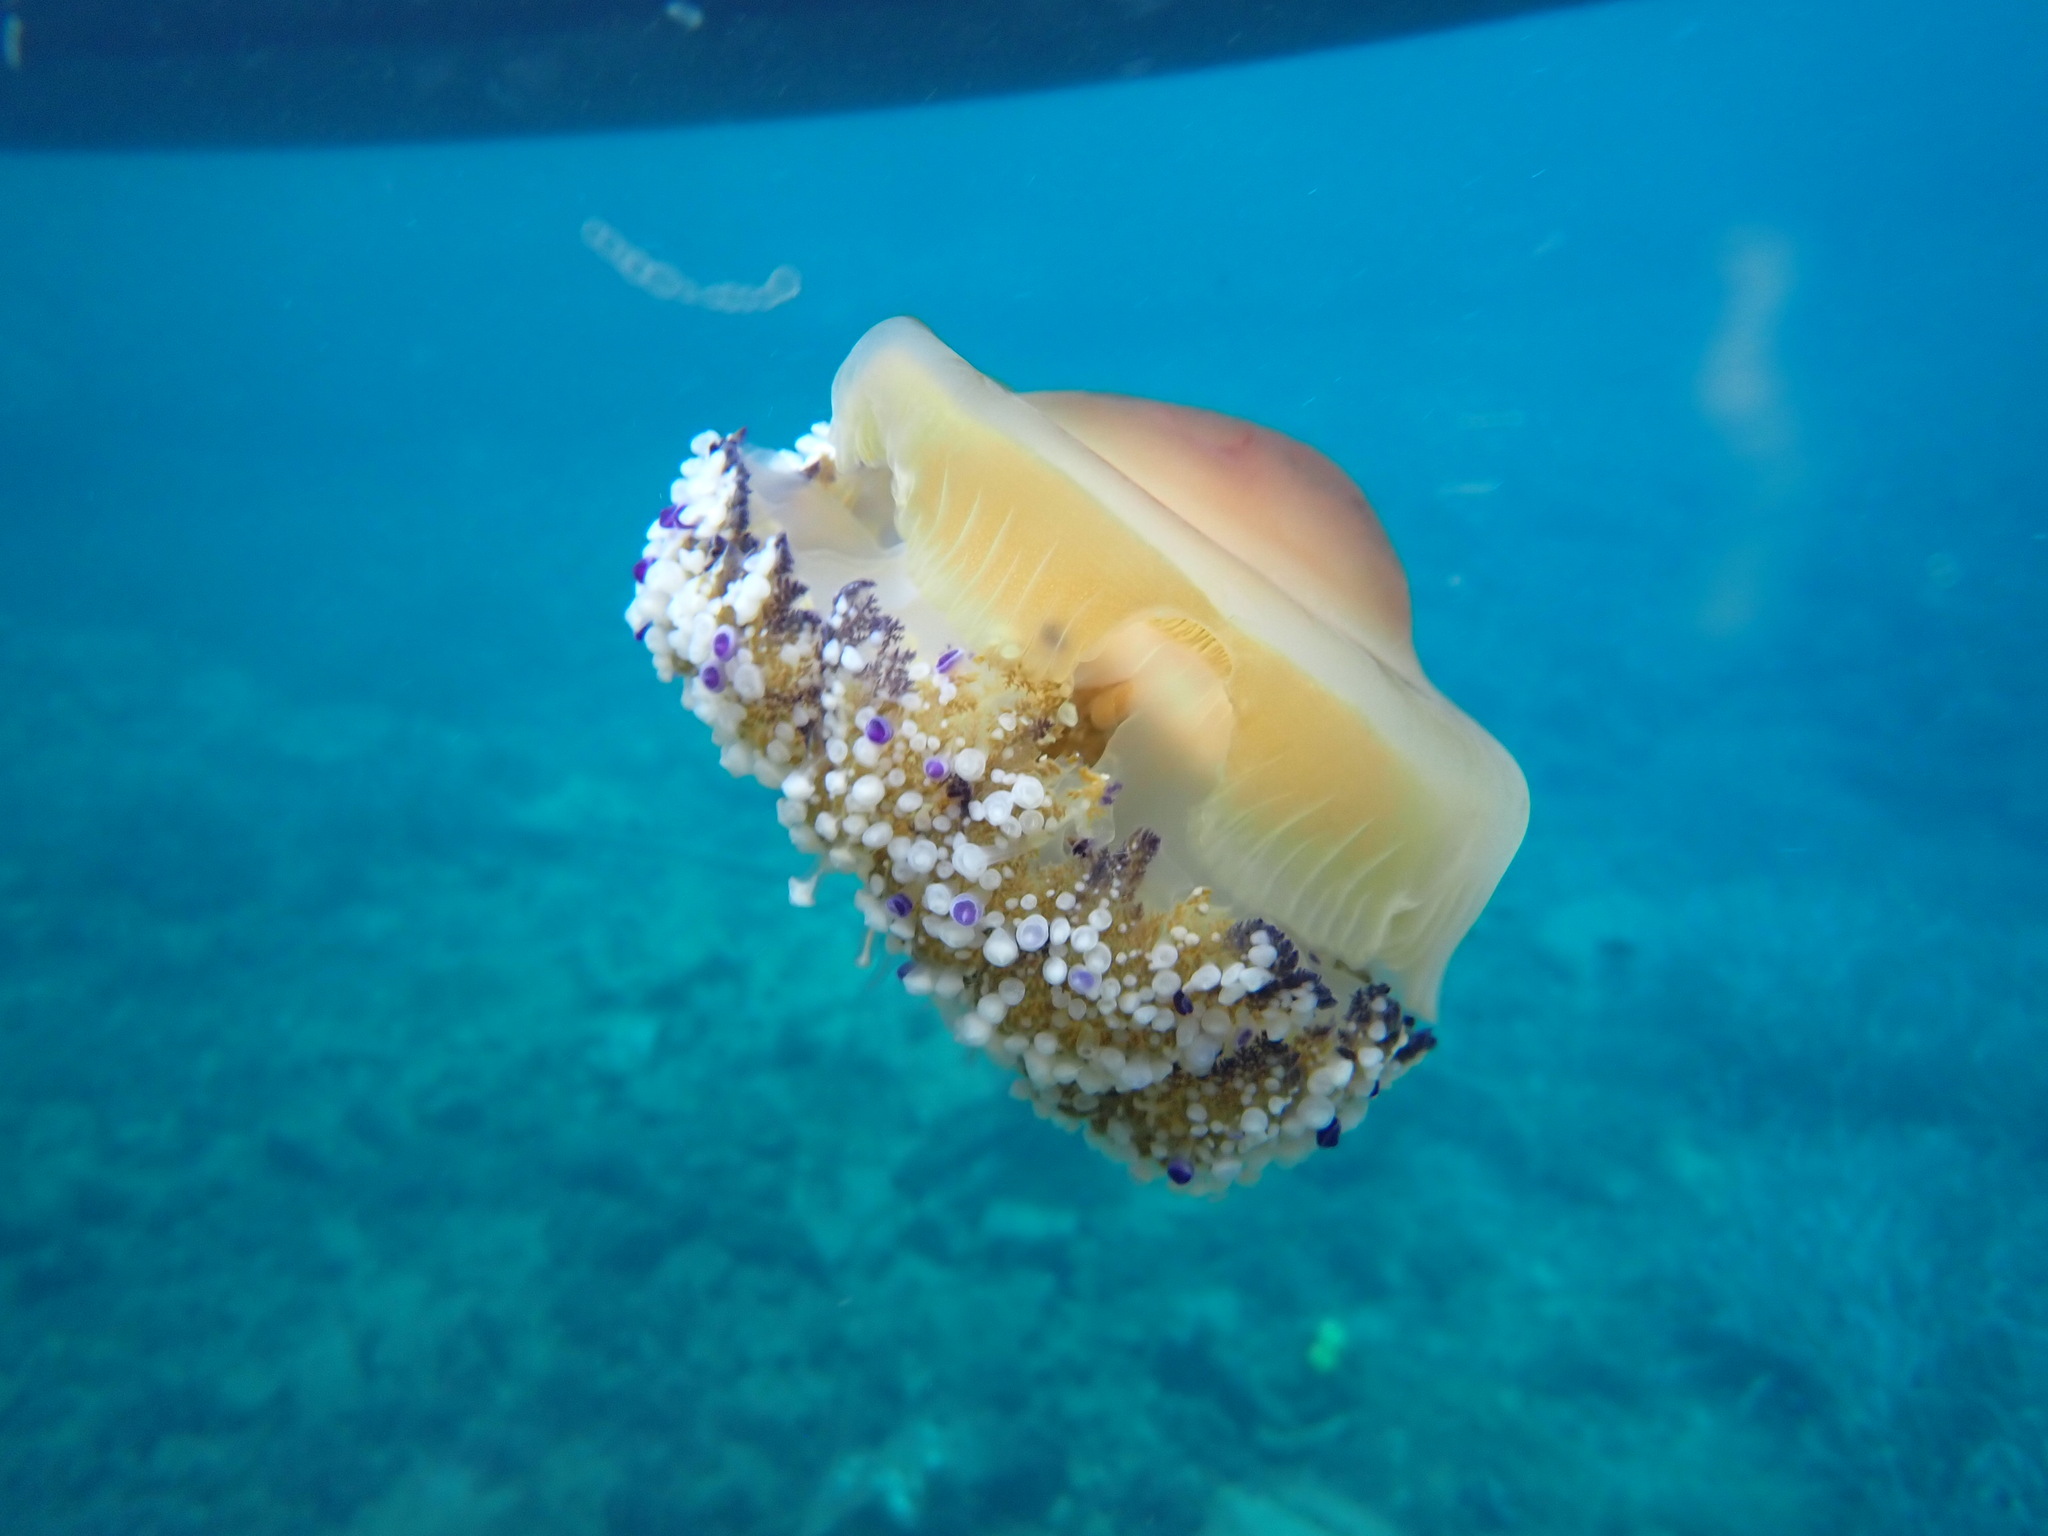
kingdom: Animalia
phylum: Cnidaria
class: Scyphozoa
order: Rhizostomeae
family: Cepheidae
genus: Cotylorhiza
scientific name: Cotylorhiza tuberculata
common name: Mediterranean jelly
